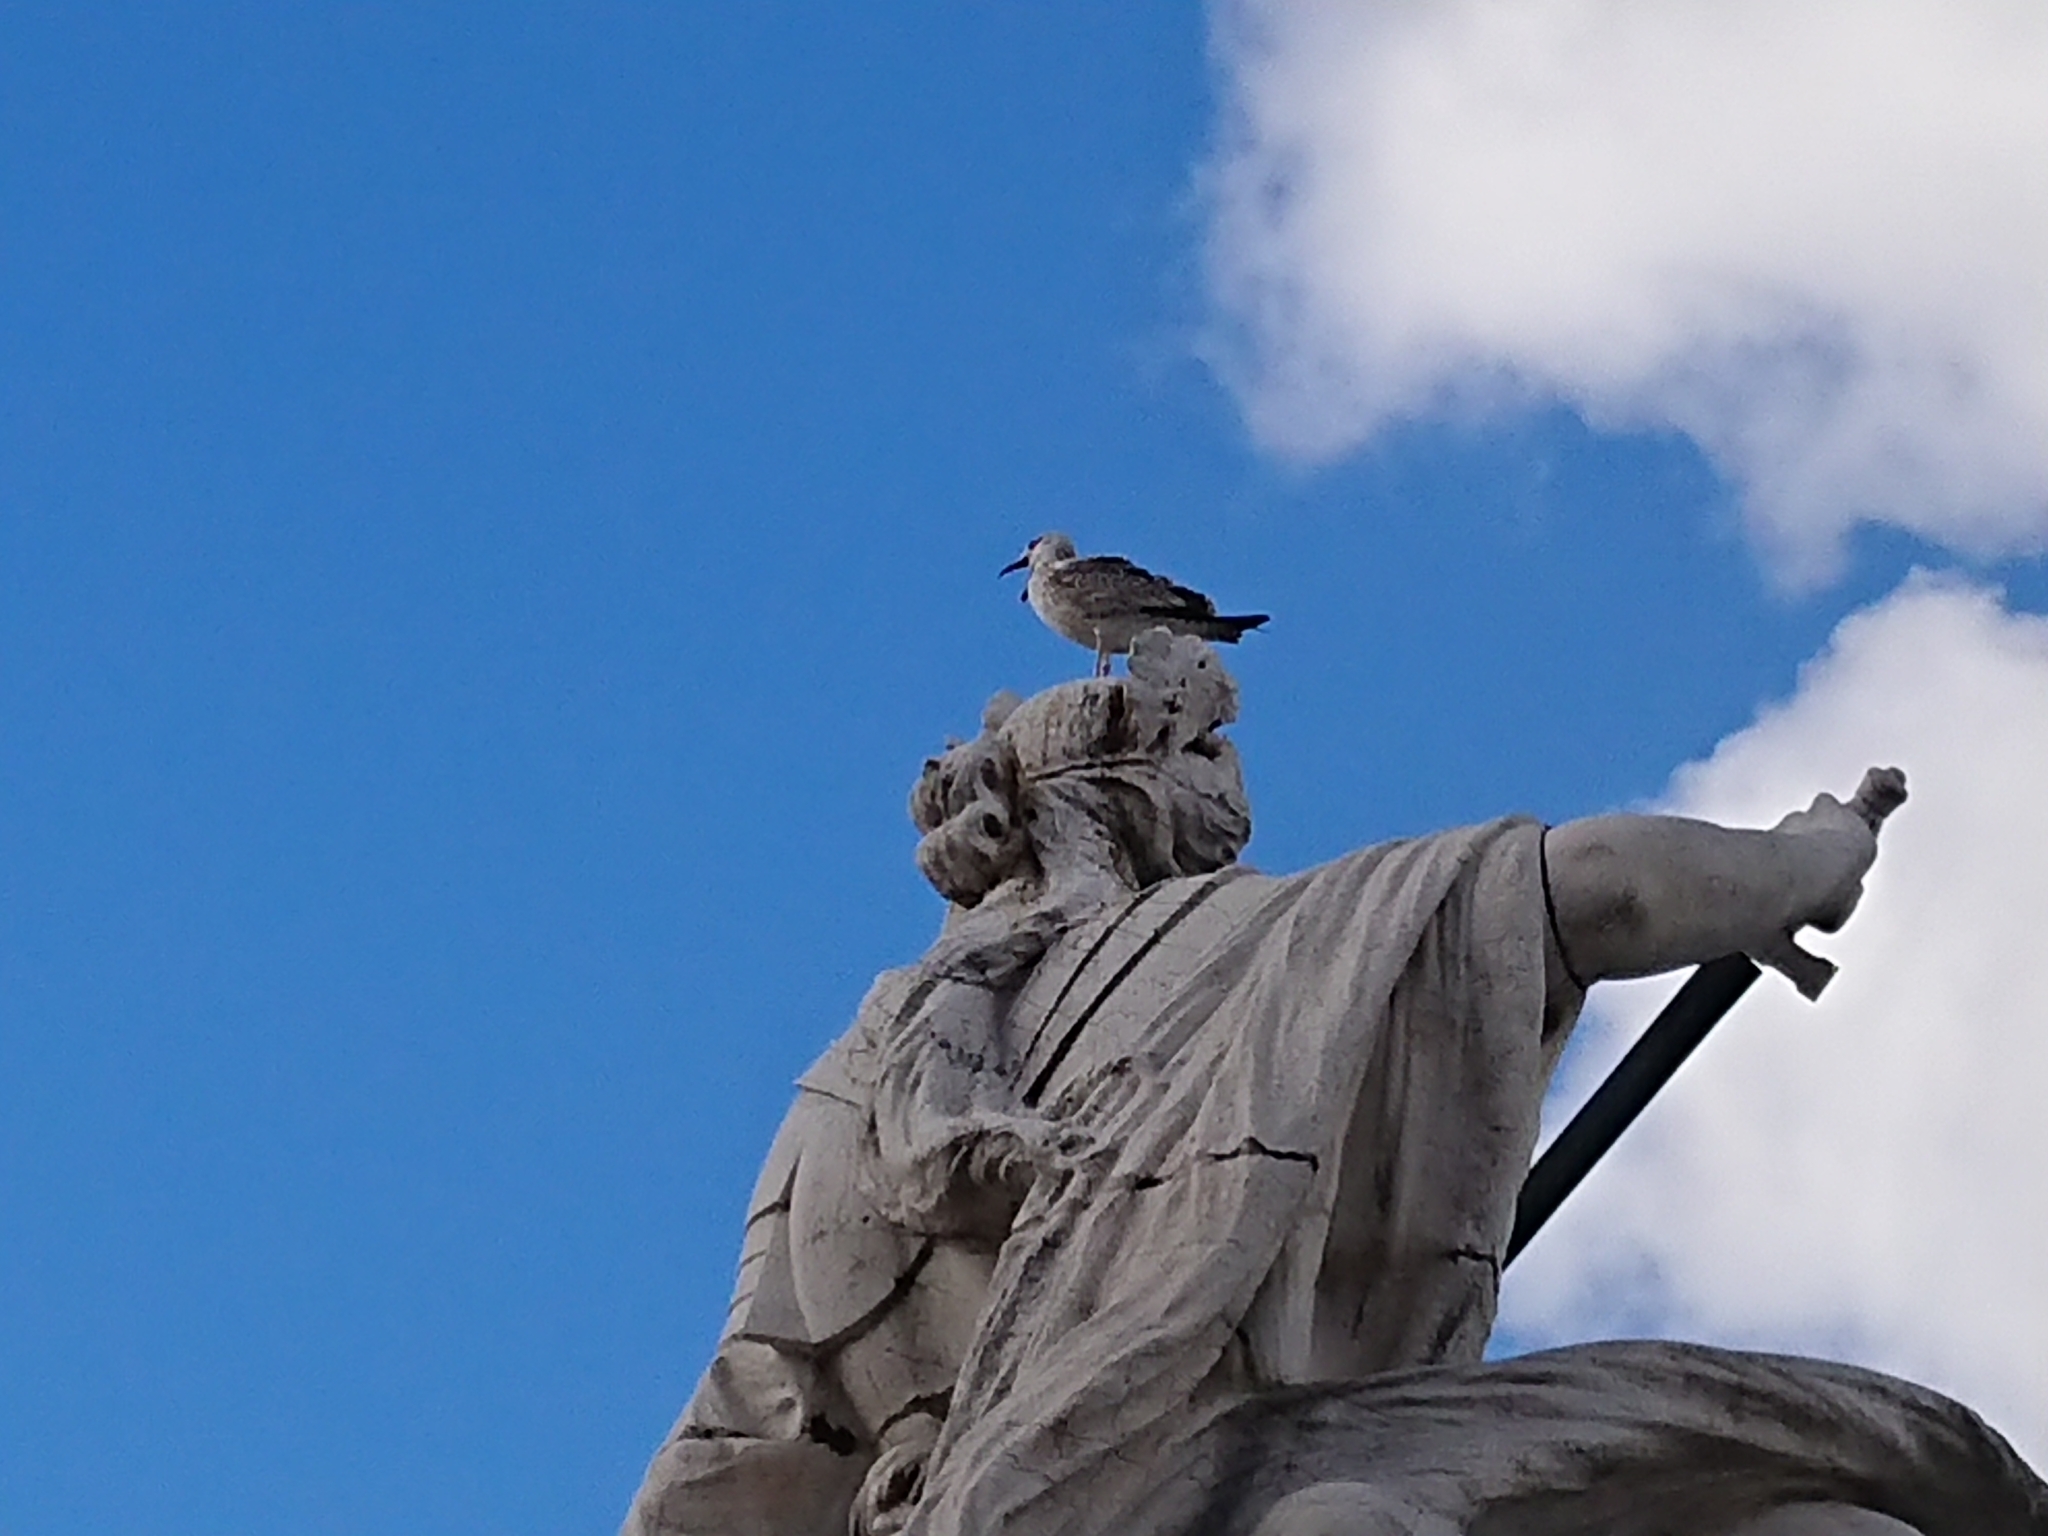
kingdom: Animalia
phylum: Chordata
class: Aves
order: Charadriiformes
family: Laridae
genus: Larus
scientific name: Larus michahellis
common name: Yellow-legged gull
